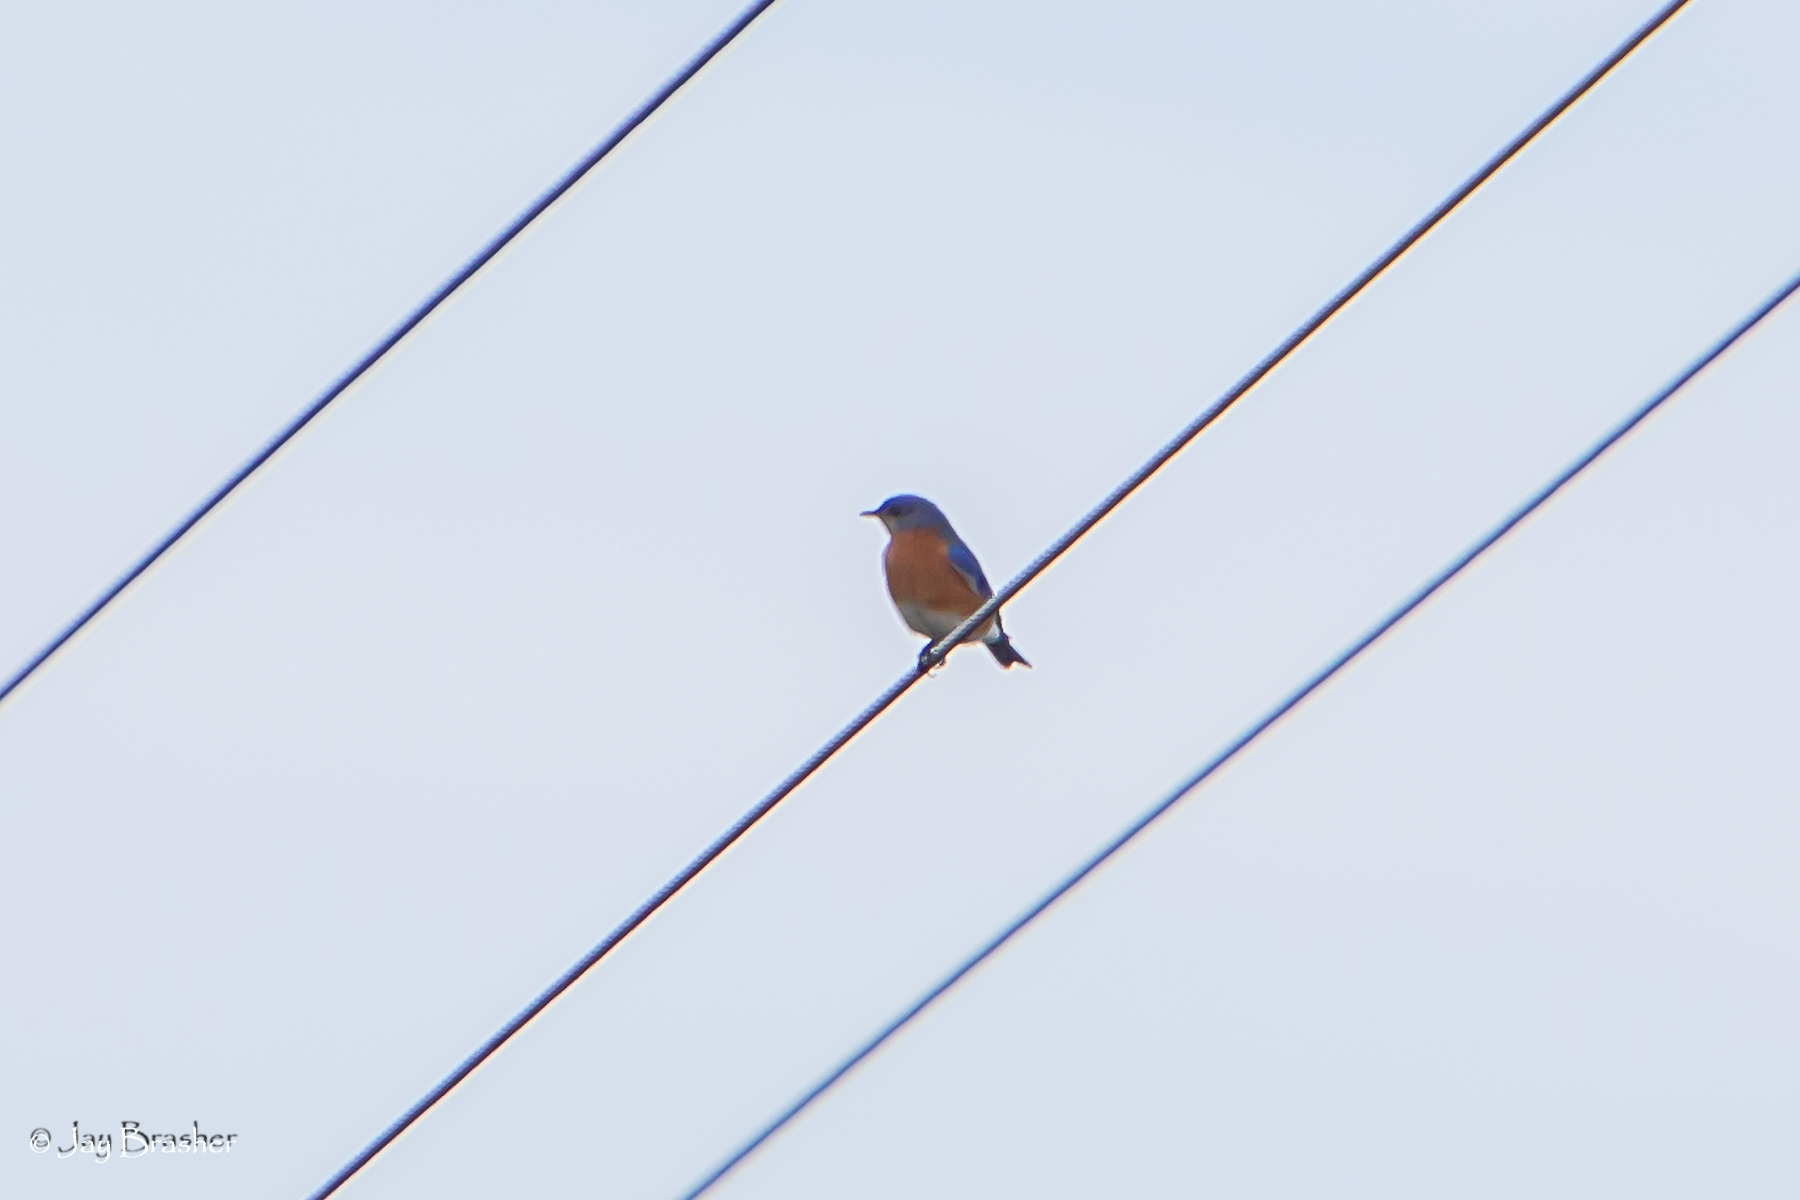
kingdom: Animalia
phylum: Chordata
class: Aves
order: Passeriformes
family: Turdidae
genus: Sialia
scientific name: Sialia sialis
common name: Eastern bluebird
